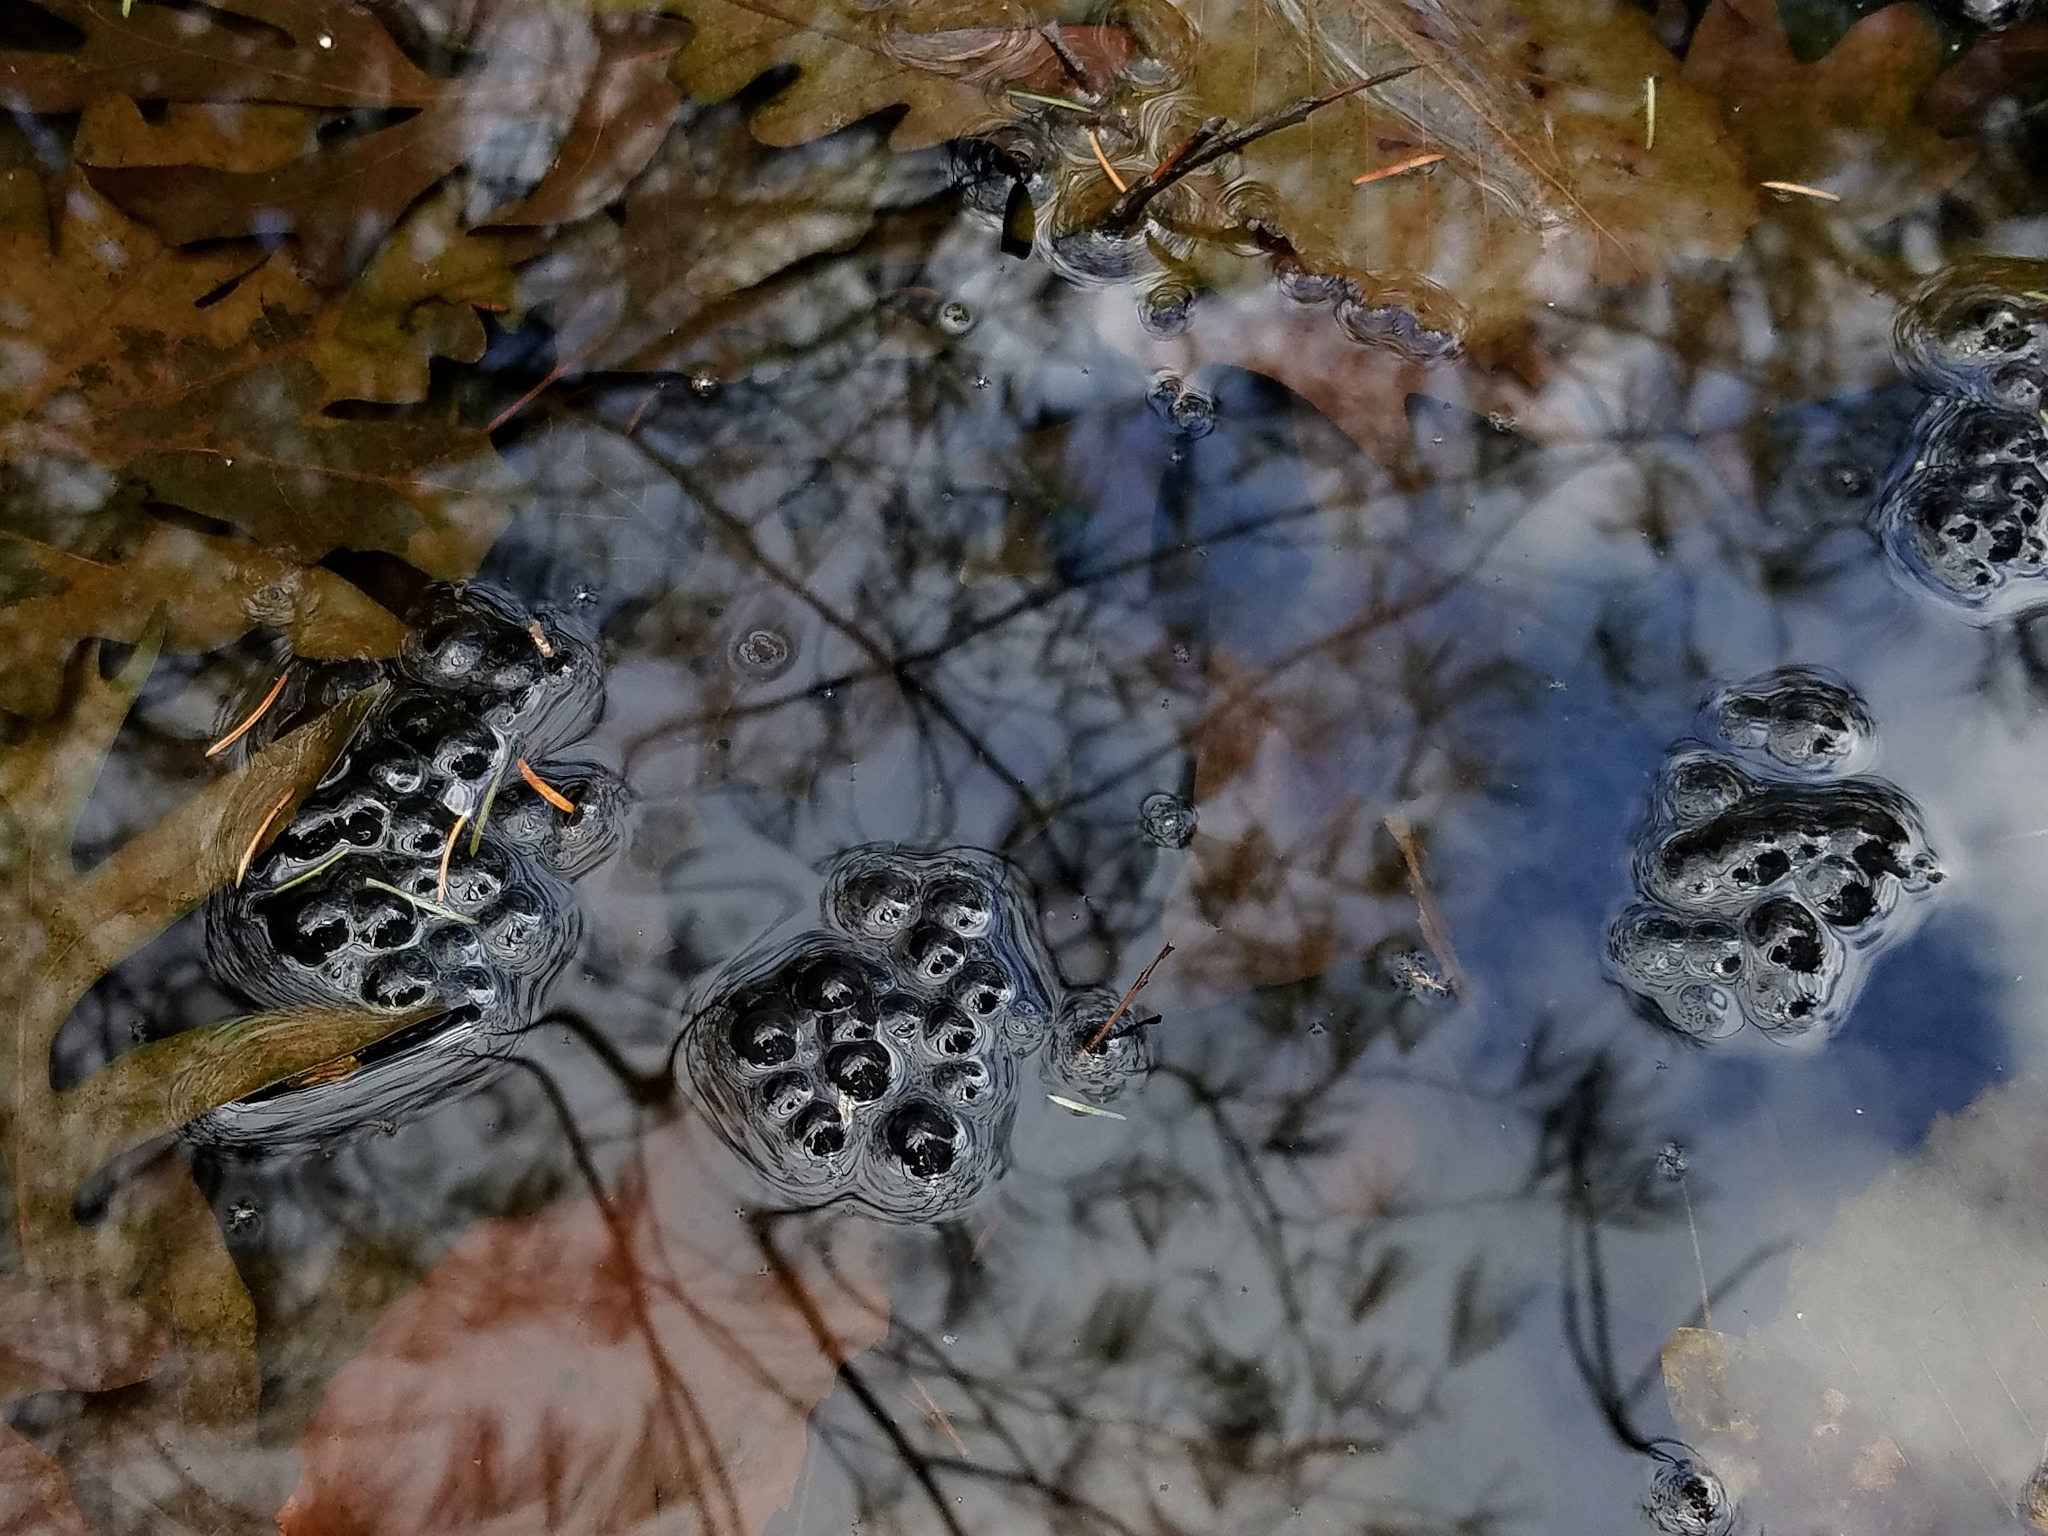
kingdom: Animalia
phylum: Chordata
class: Amphibia
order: Anura
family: Ranidae
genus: Lithobates
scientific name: Lithobates sylvaticus
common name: Wood frog
